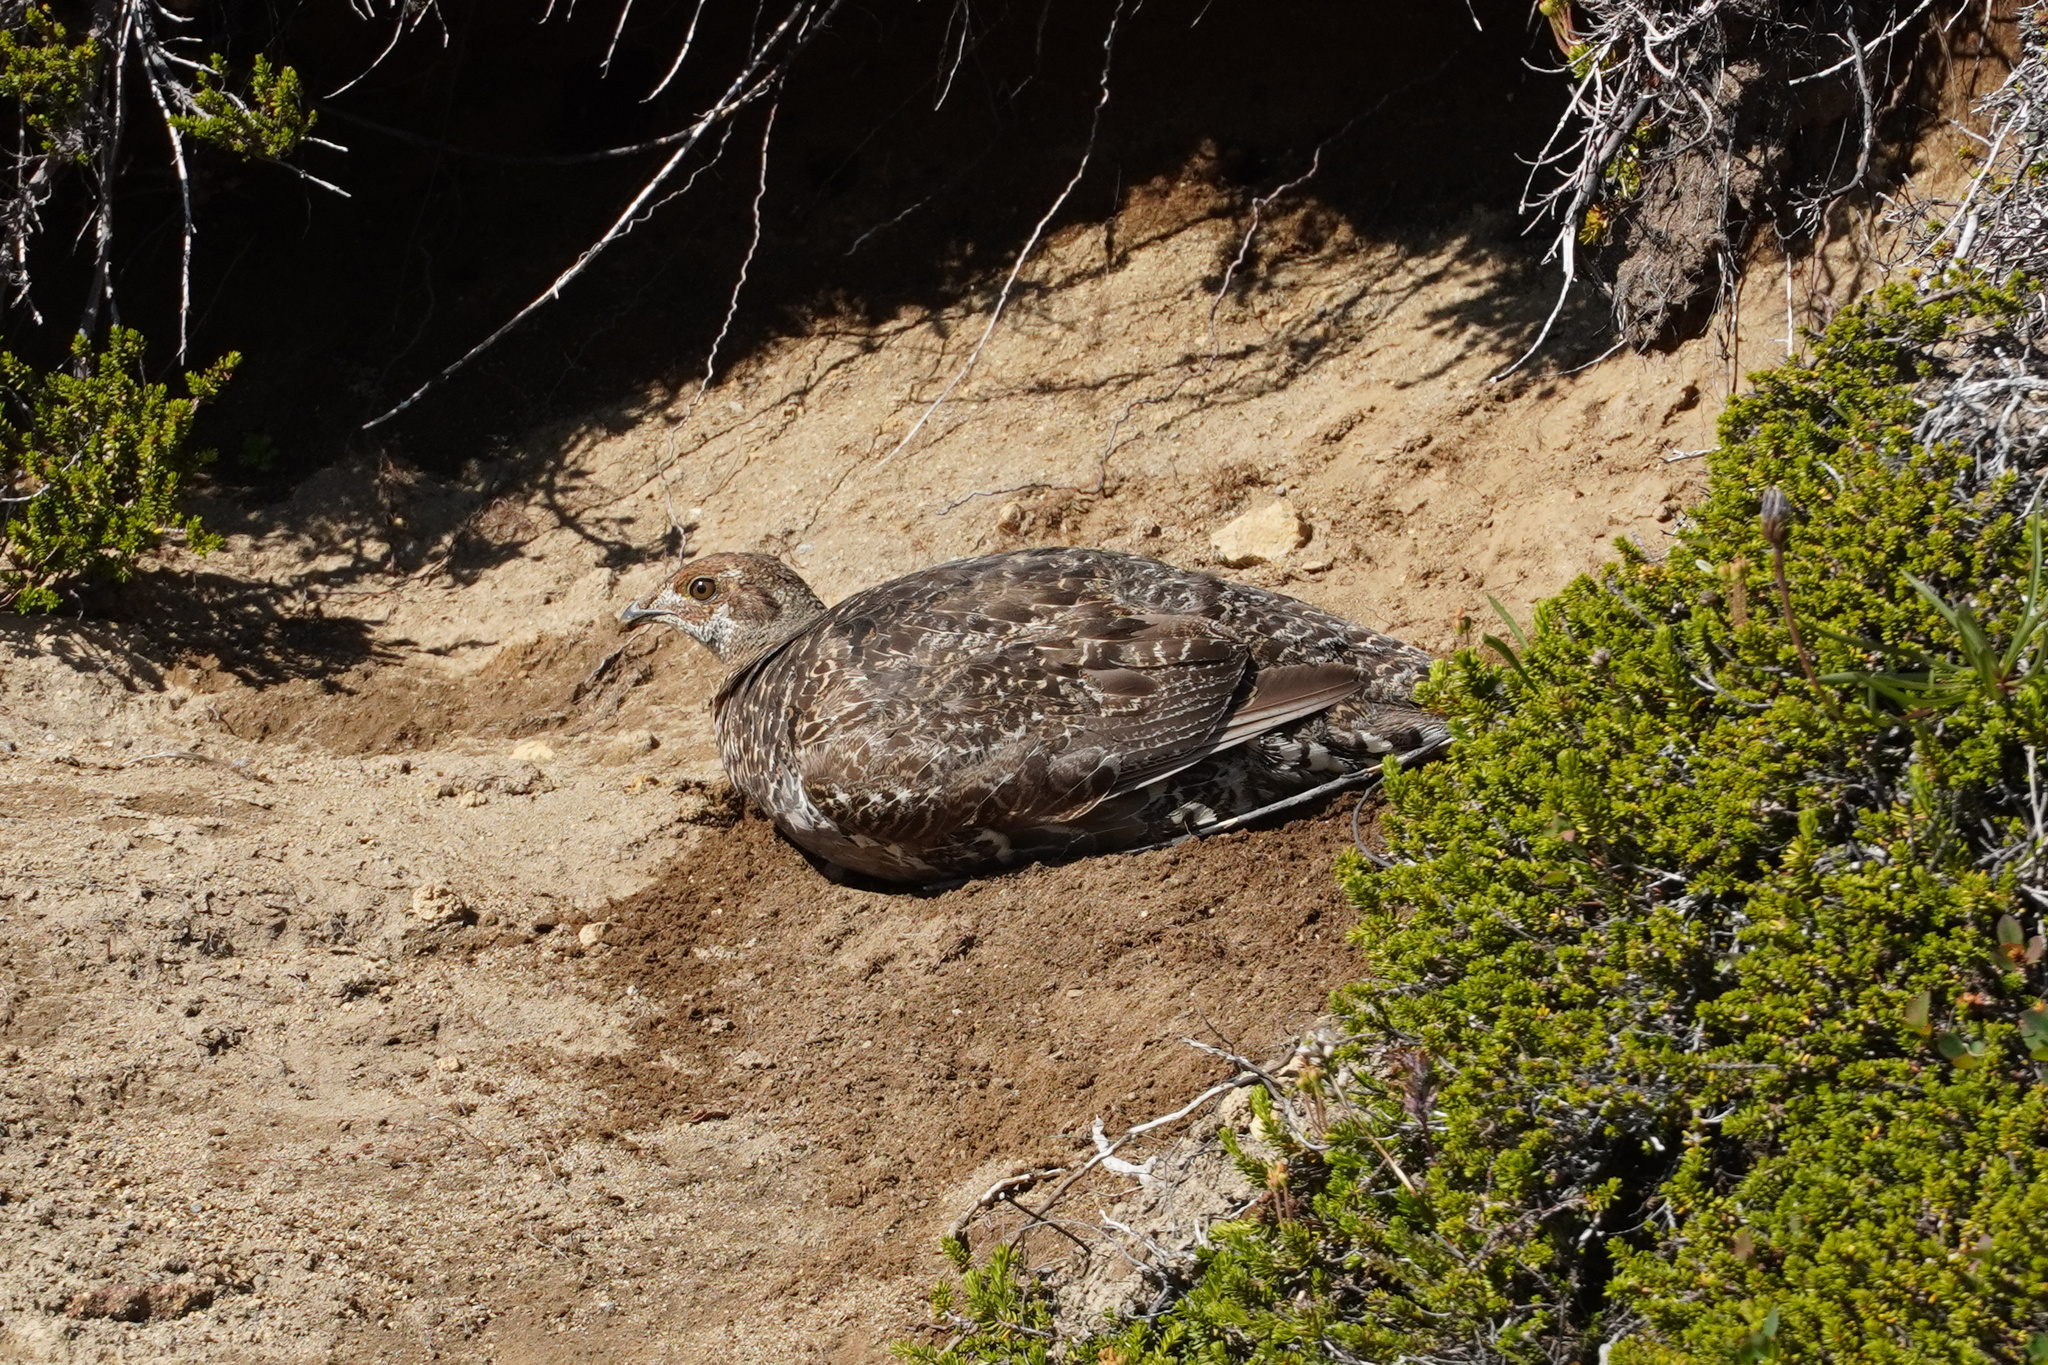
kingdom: Animalia
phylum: Chordata
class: Aves
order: Galliformes
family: Phasianidae
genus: Dendragapus
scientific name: Dendragapus fuliginosus
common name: Sooty grouse
